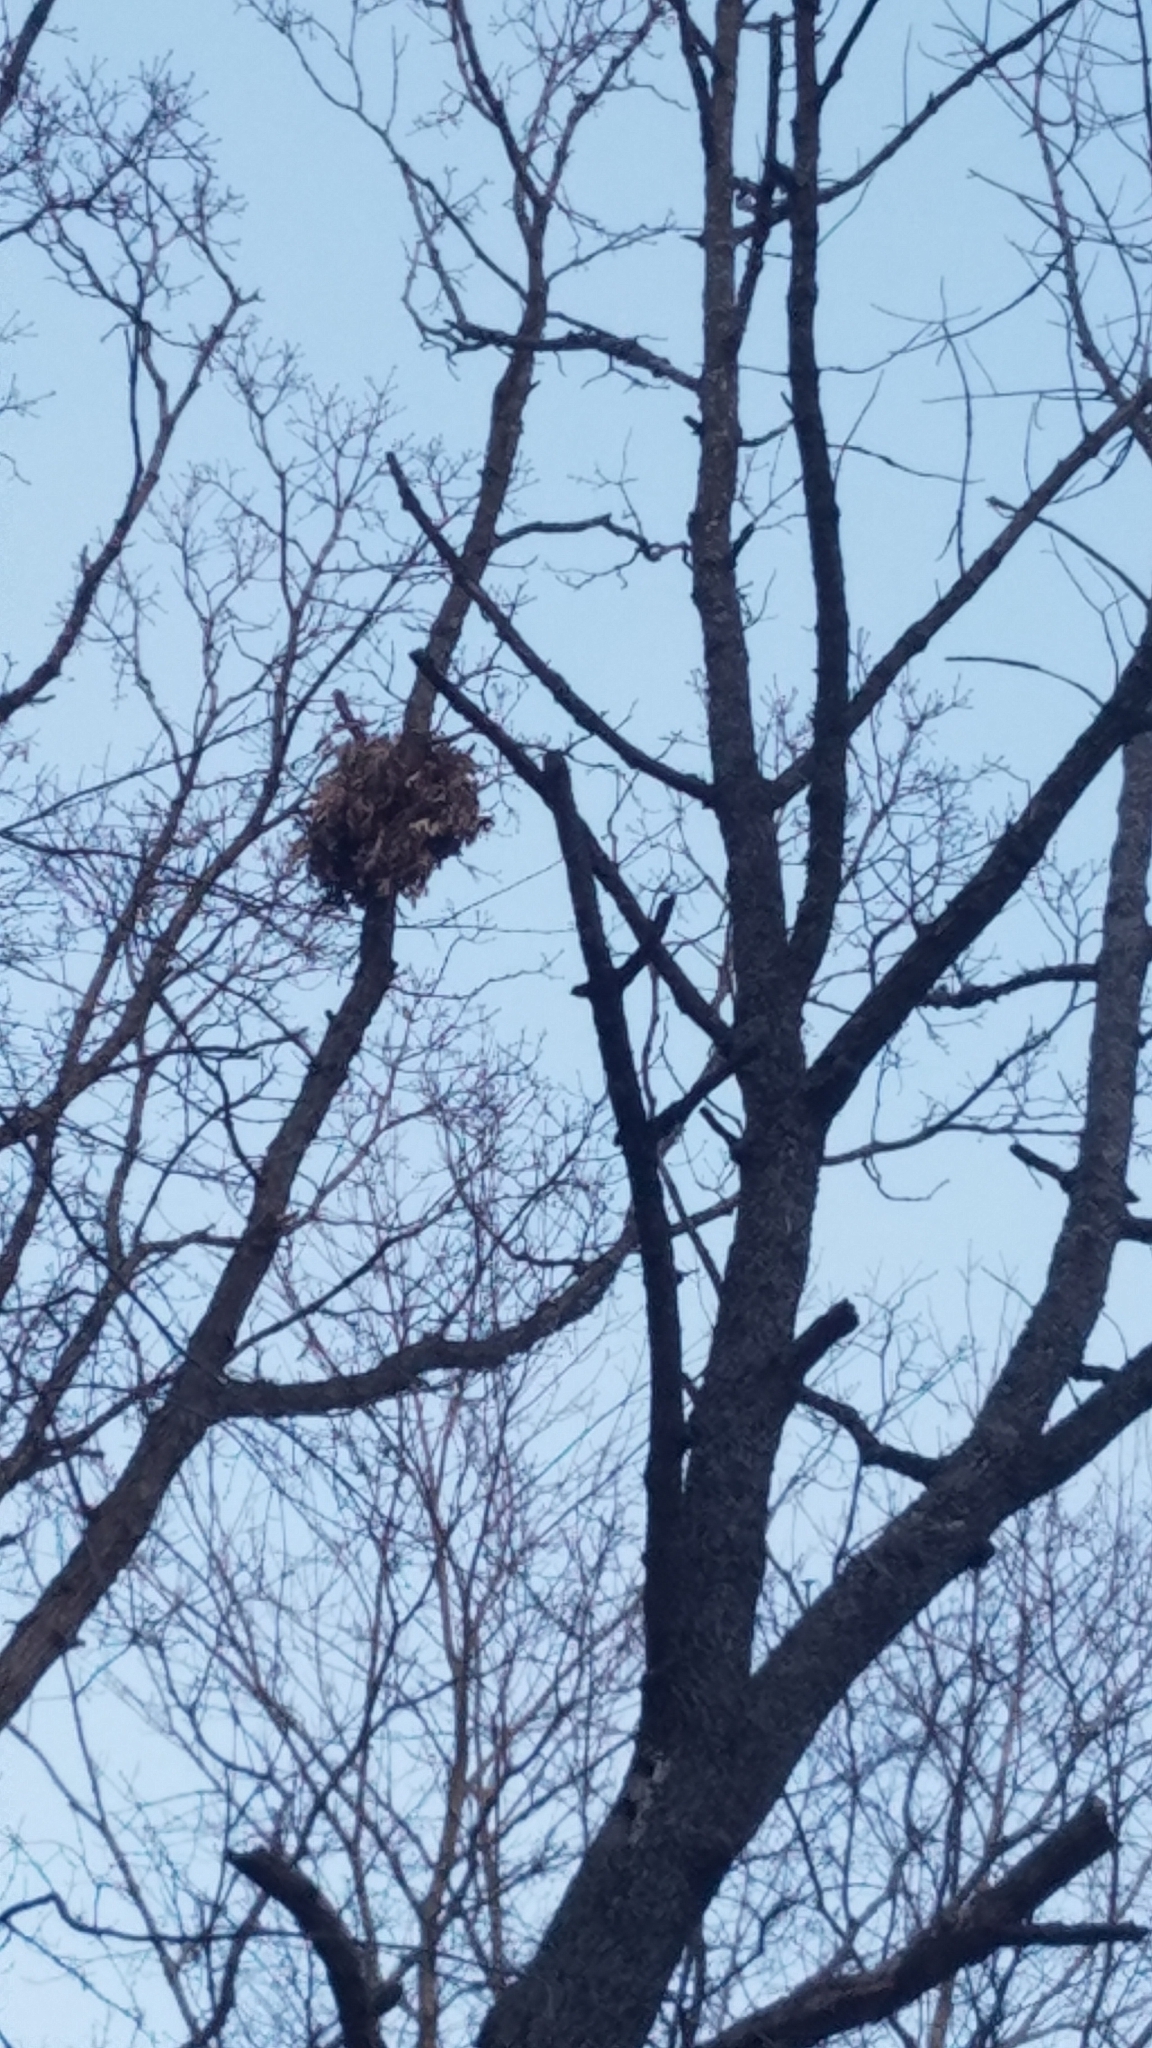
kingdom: Animalia
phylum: Chordata
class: Mammalia
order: Rodentia
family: Sciuridae
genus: Sciurus
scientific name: Sciurus carolinensis
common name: Eastern gray squirrel
